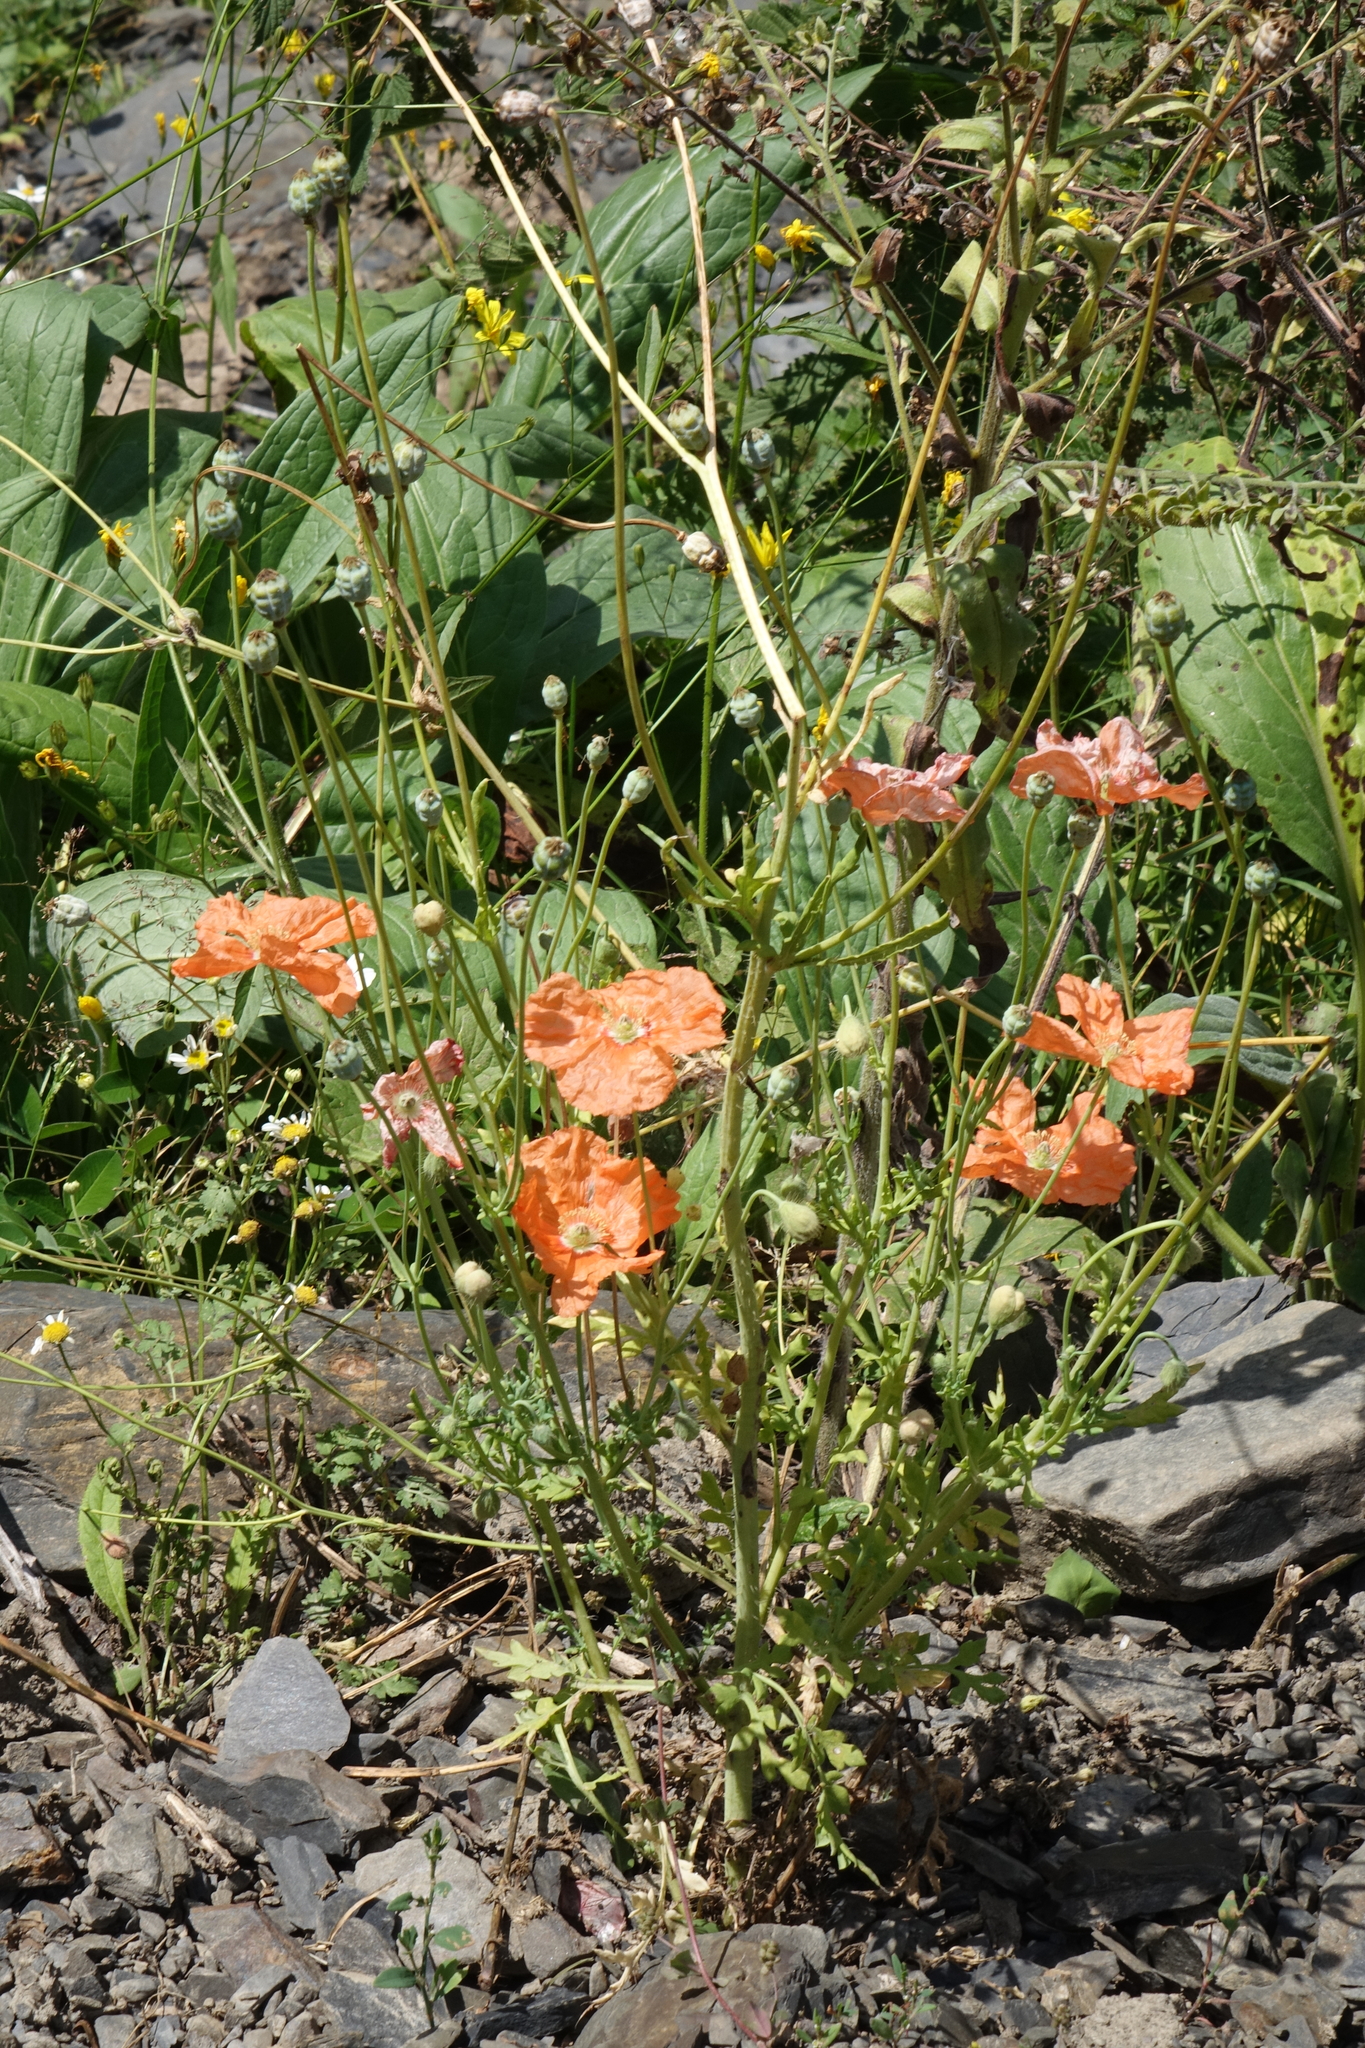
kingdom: Plantae
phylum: Tracheophyta
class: Magnoliopsida
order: Ranunculales
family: Papaveraceae
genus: Papaver
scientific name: Papaver armeniacum
